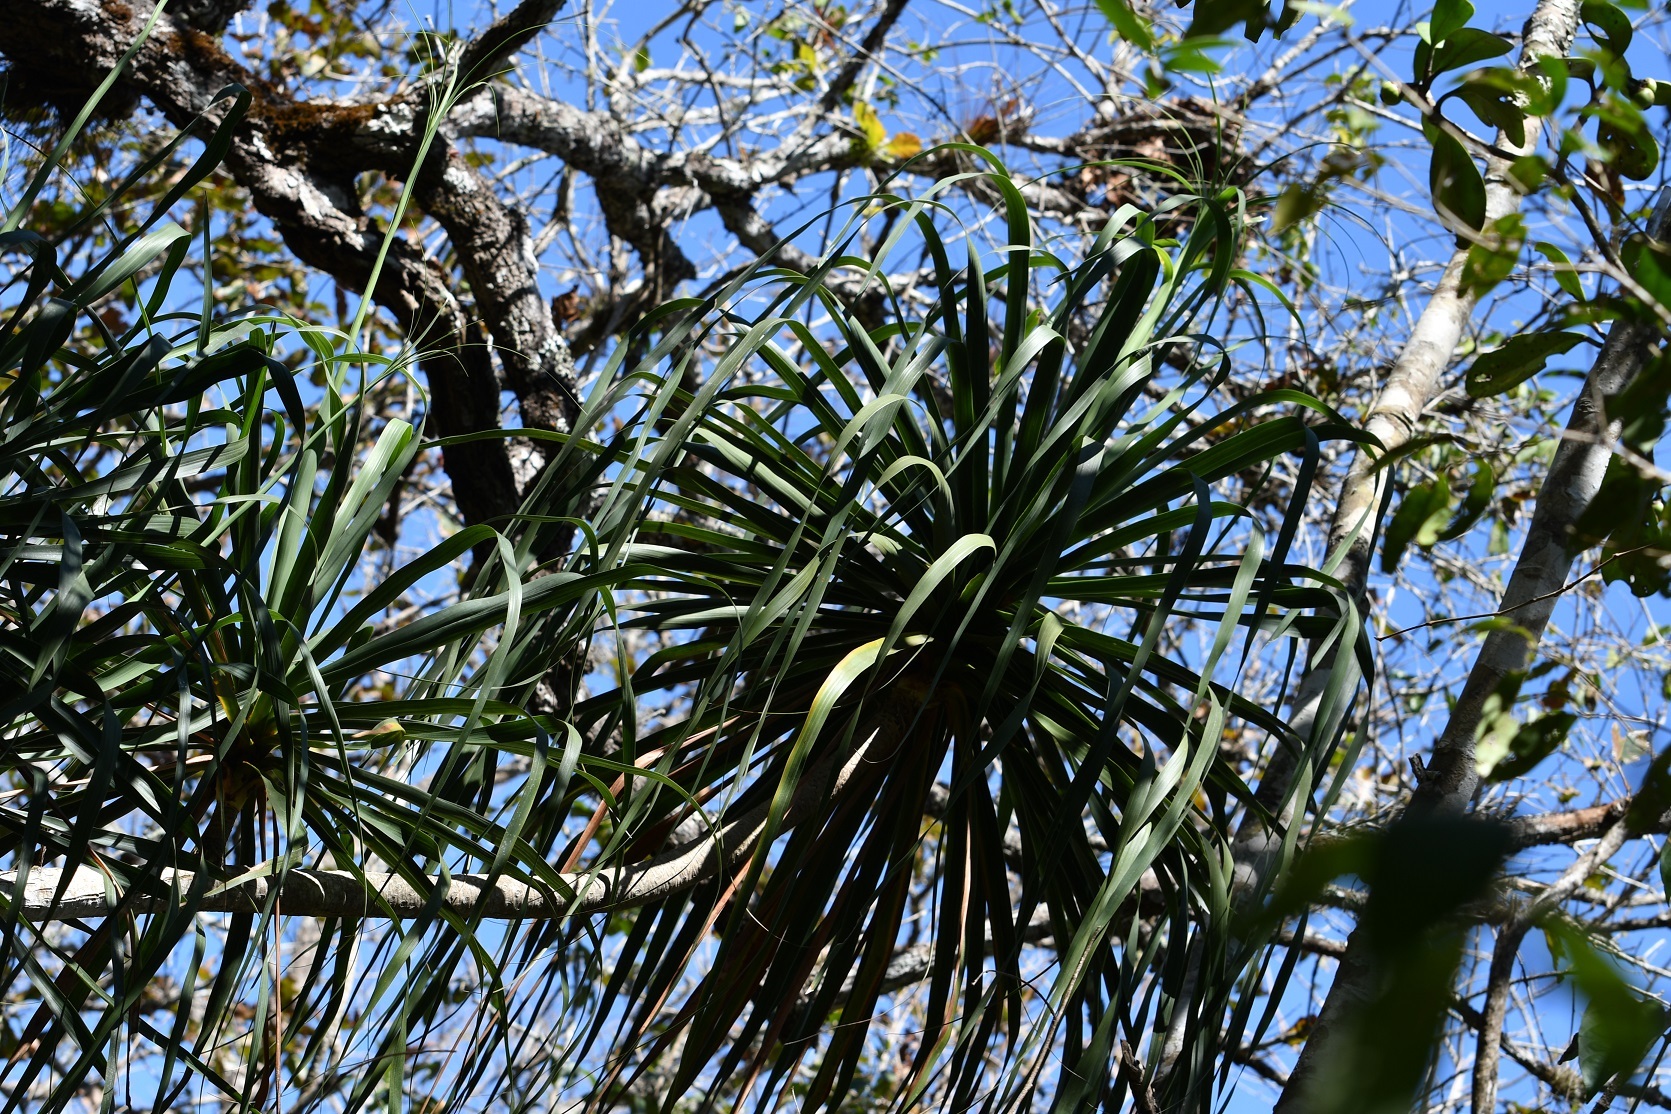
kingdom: Plantae
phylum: Tracheophyta
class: Liliopsida
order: Asparagales
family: Asparagaceae
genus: Beaucarnea
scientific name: Beaucarnea goldmanii
